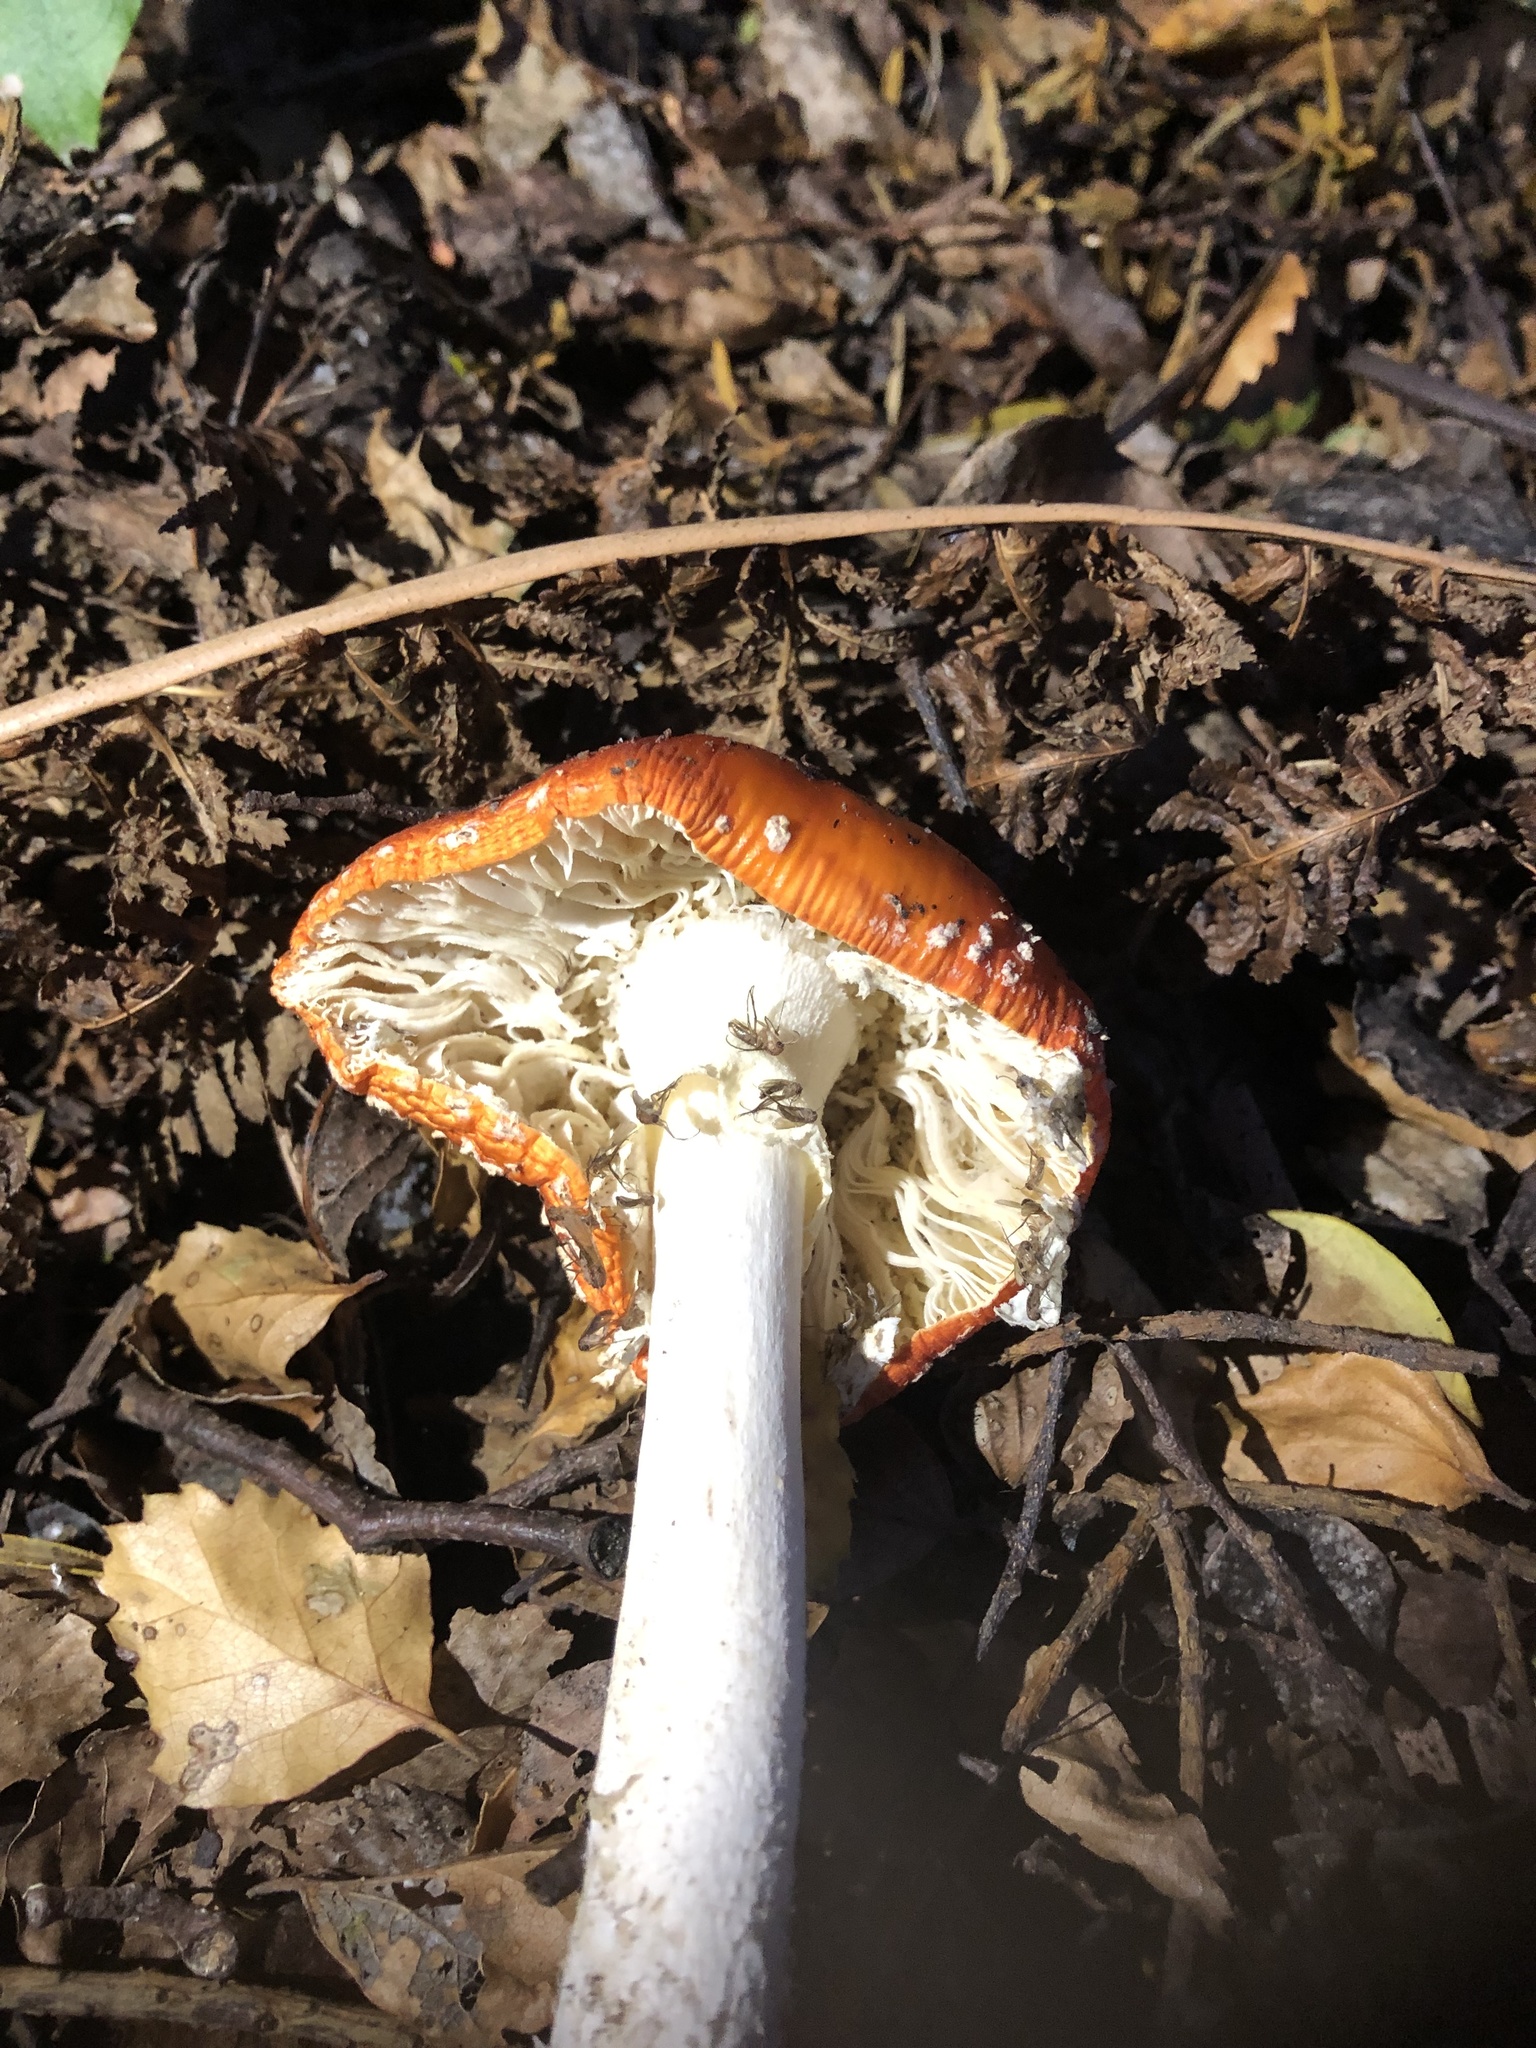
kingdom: Fungi
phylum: Basidiomycota
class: Agaricomycetes
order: Agaricales
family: Amanitaceae
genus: Amanita
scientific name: Amanita muscaria
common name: Fly agaric
